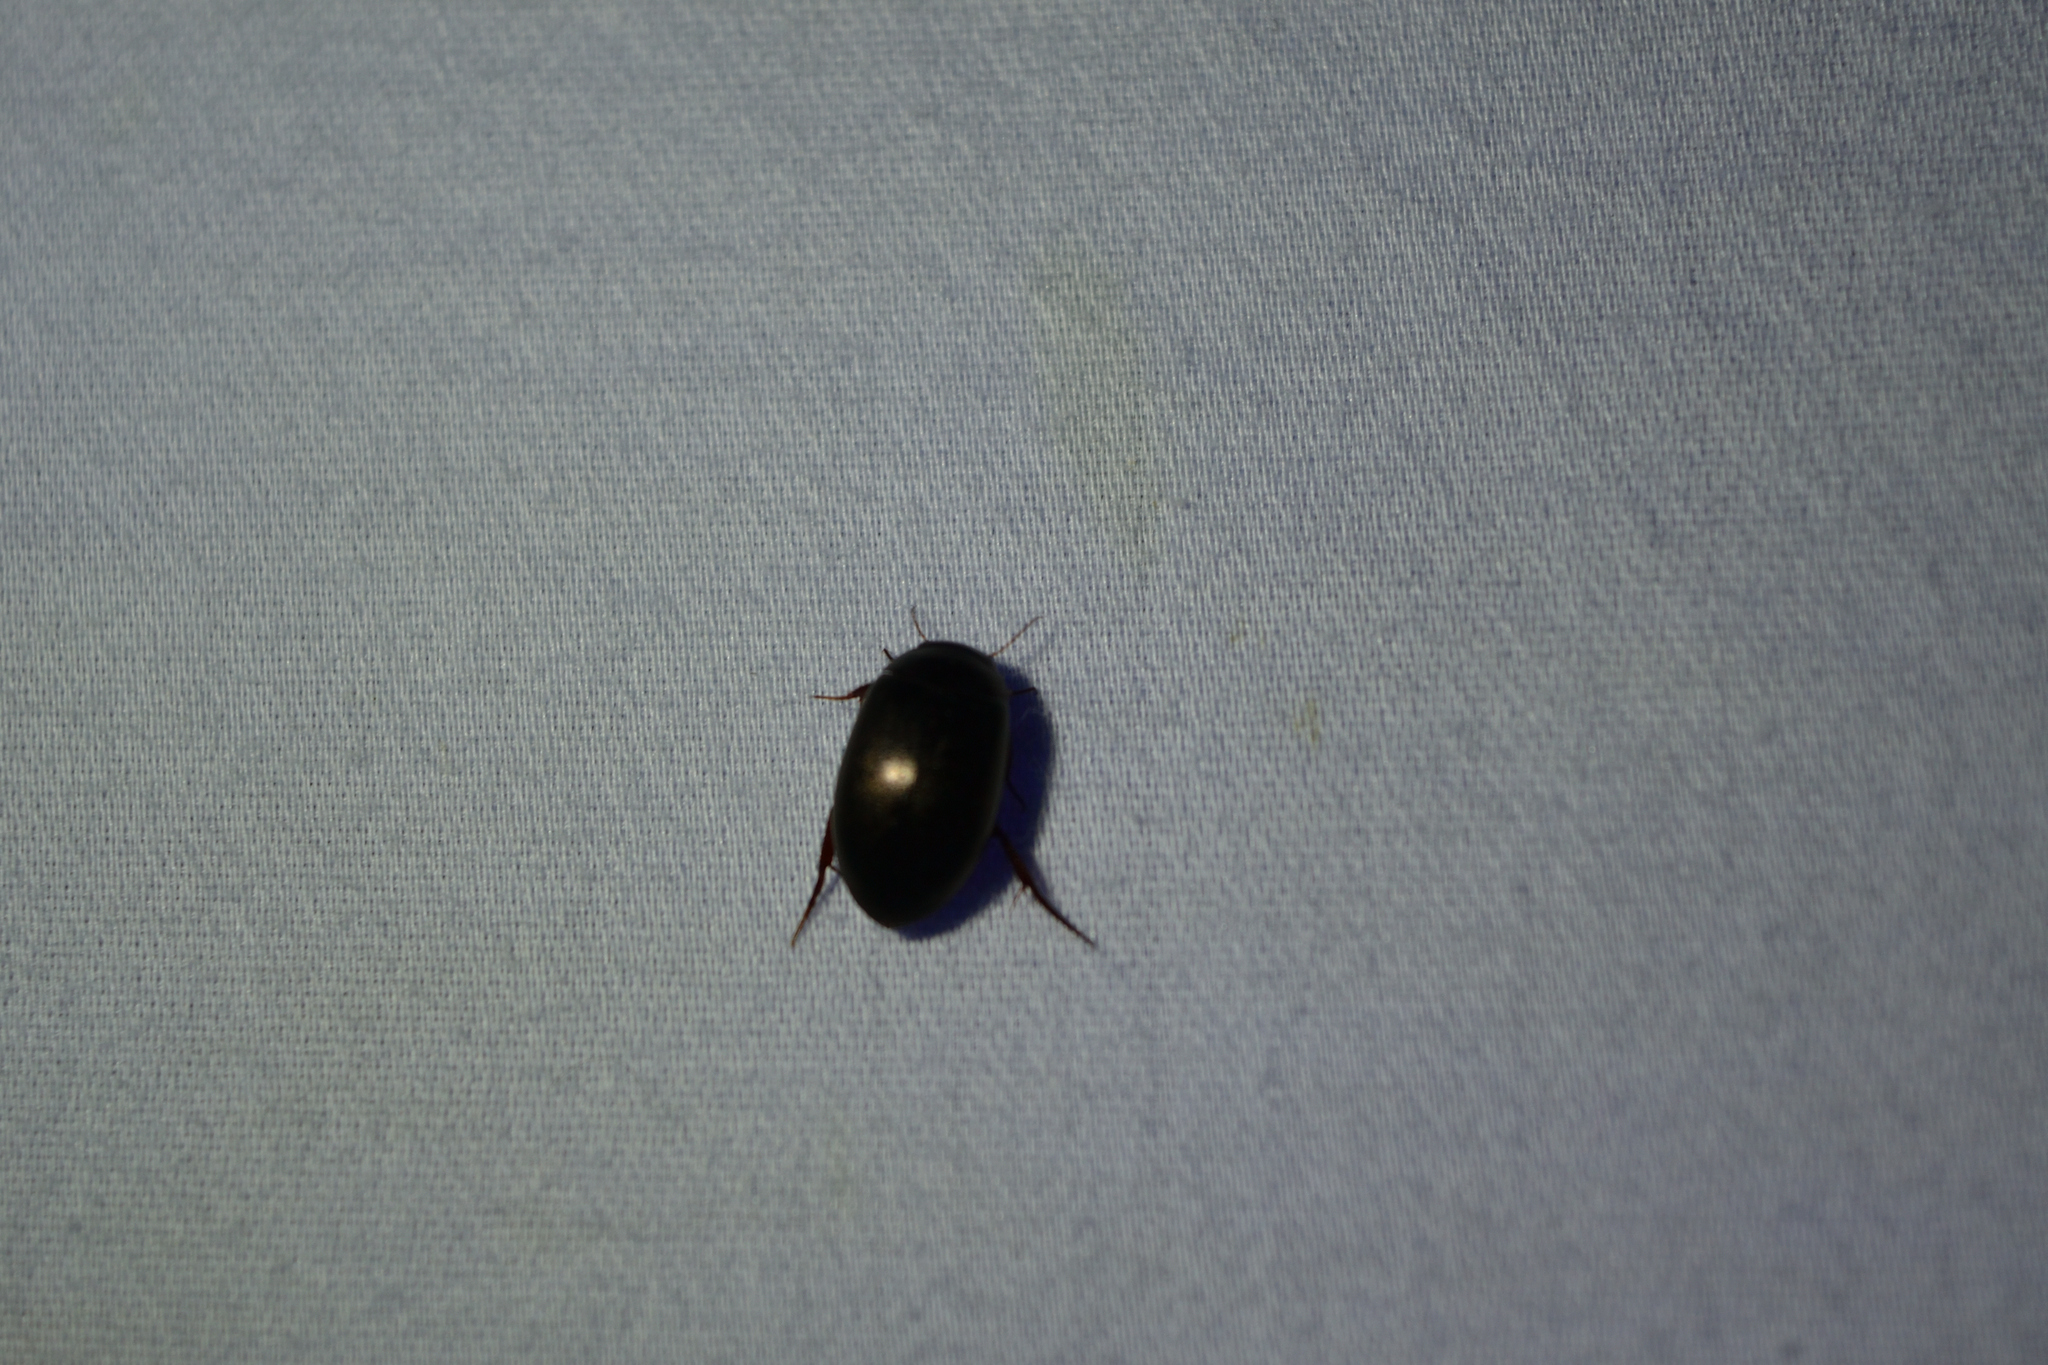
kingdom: Animalia
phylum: Arthropoda
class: Insecta
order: Coleoptera
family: Dytiscidae
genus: Ilybius
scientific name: Ilybius
